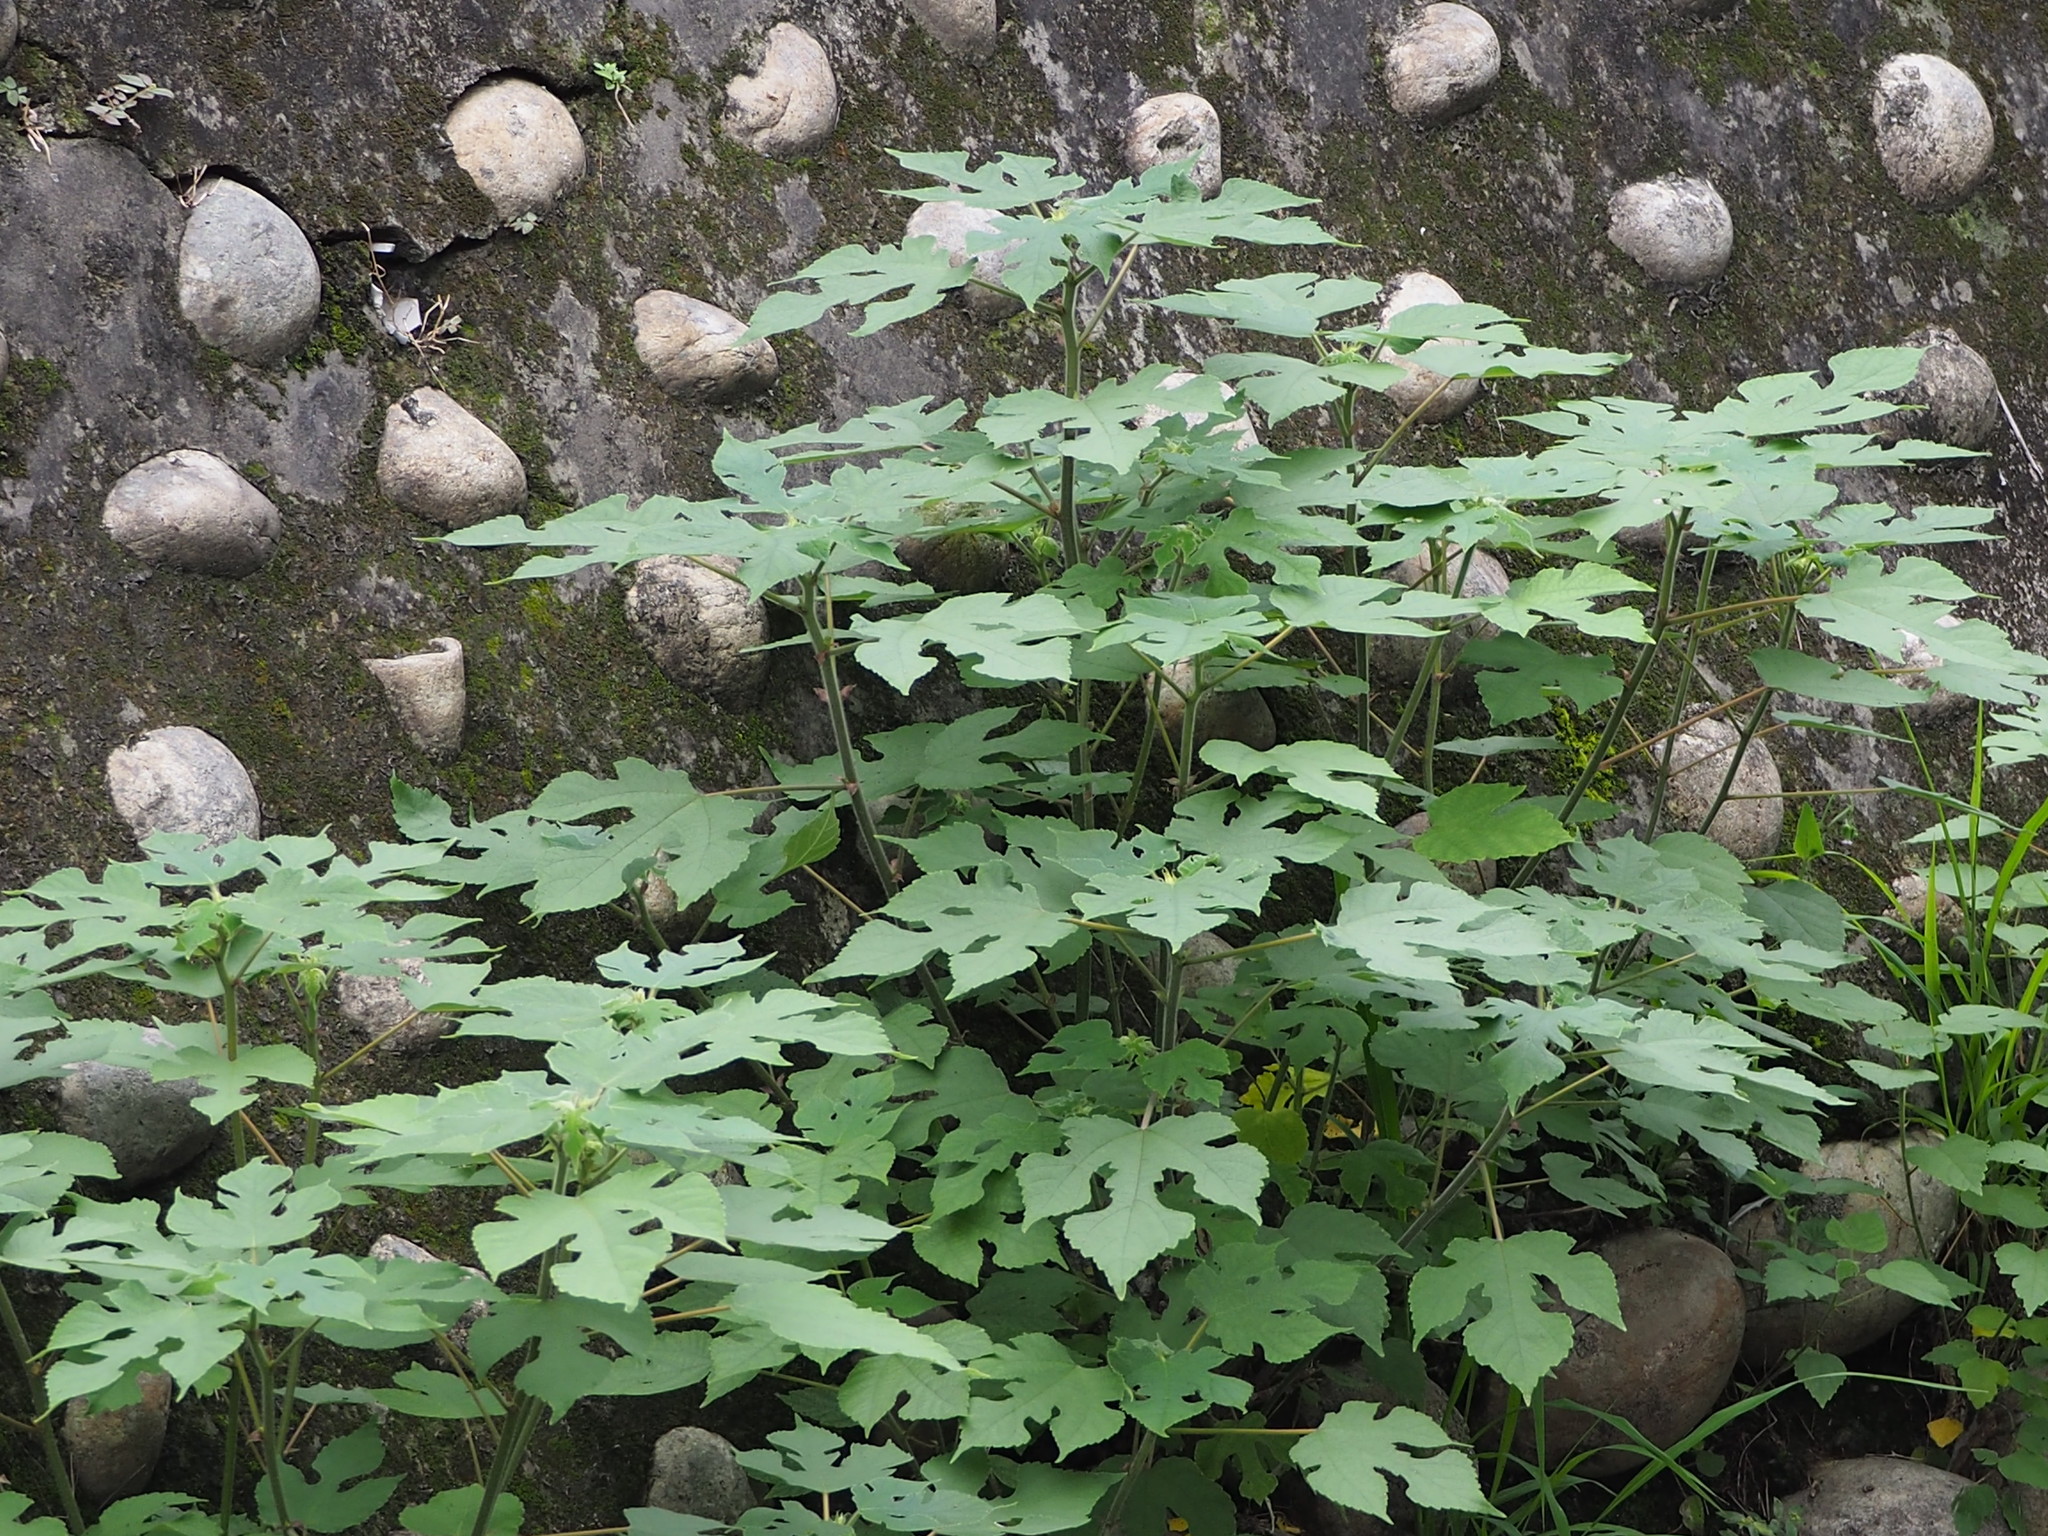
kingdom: Plantae
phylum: Tracheophyta
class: Magnoliopsida
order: Rosales
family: Moraceae
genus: Broussonetia
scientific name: Broussonetia papyrifera
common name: Paper mulberry
